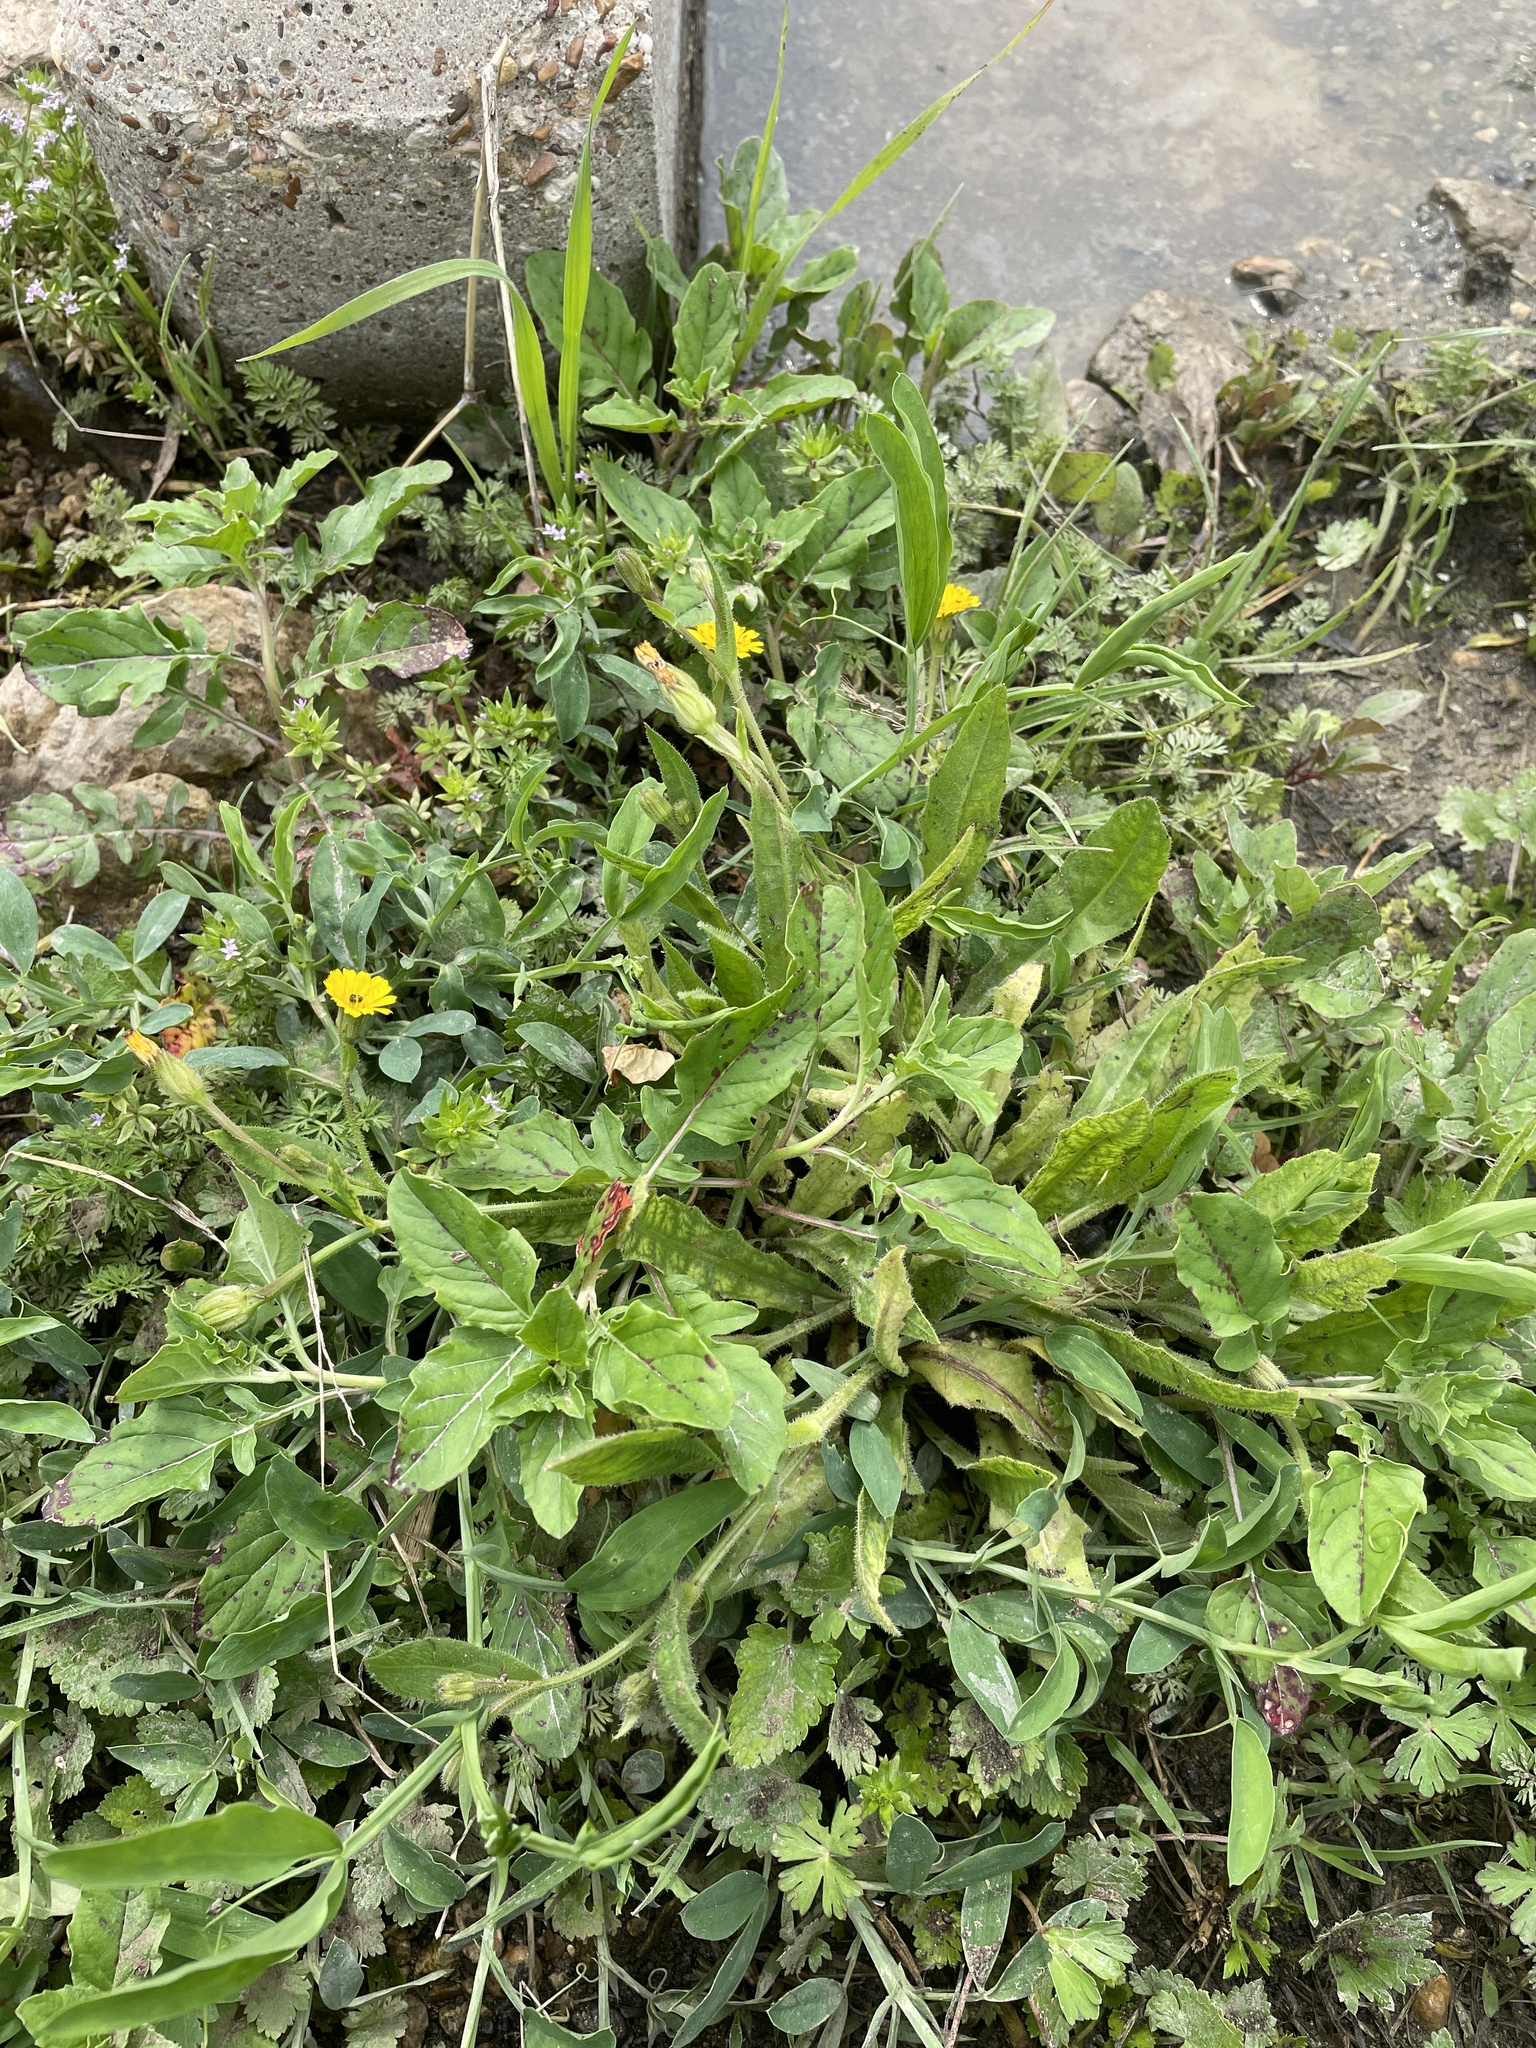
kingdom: Plantae
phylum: Tracheophyta
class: Magnoliopsida
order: Asterales
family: Asteraceae
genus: Hedypnois
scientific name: Hedypnois rhagadioloides
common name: Cretan weed
